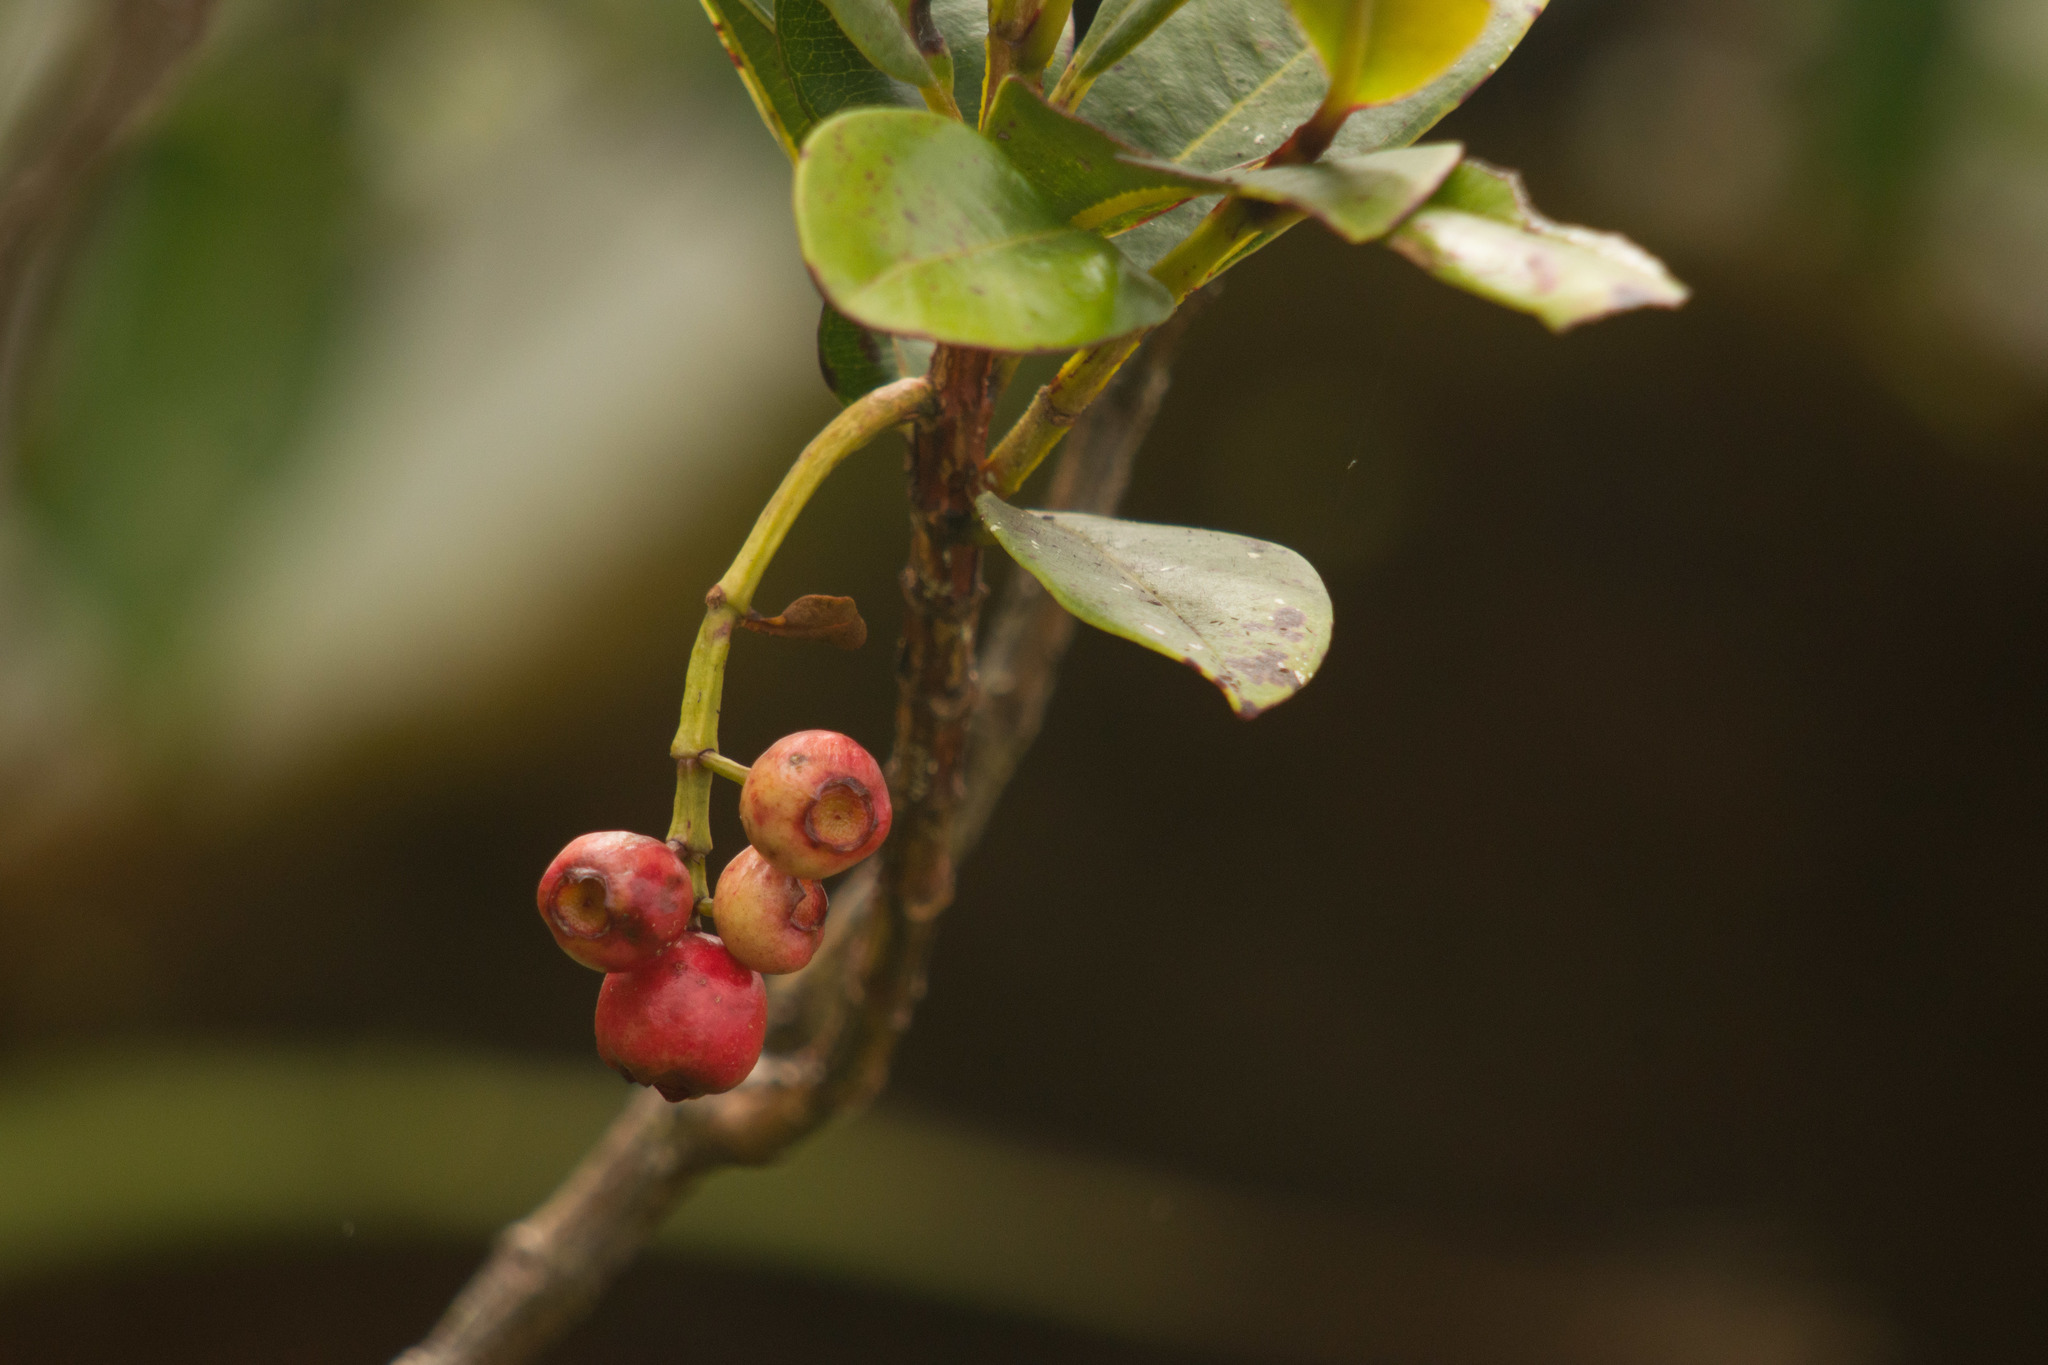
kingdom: Plantae
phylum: Tracheophyta
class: Magnoliopsida
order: Myrtales
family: Myrtaceae
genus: Syzygium
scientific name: Syzygium sandwicense
